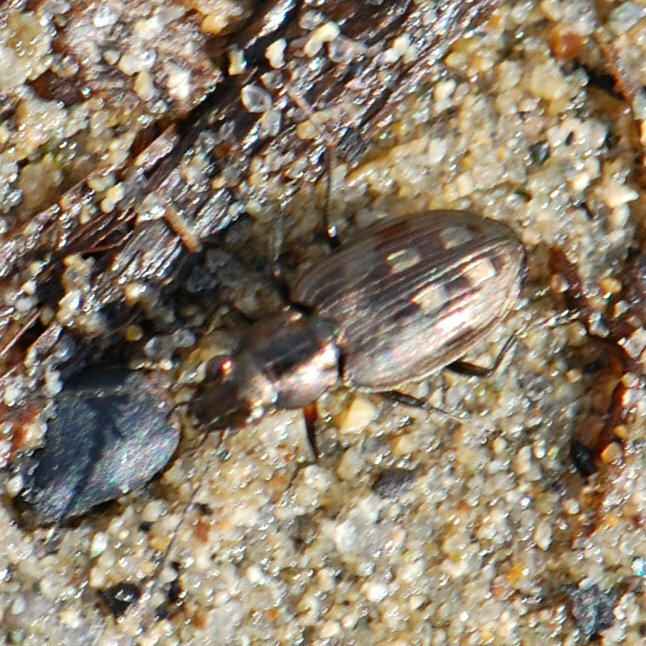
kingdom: Animalia
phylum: Arthropoda
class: Insecta
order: Coleoptera
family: Carabidae
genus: Bembidion
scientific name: Bembidion inaequale
